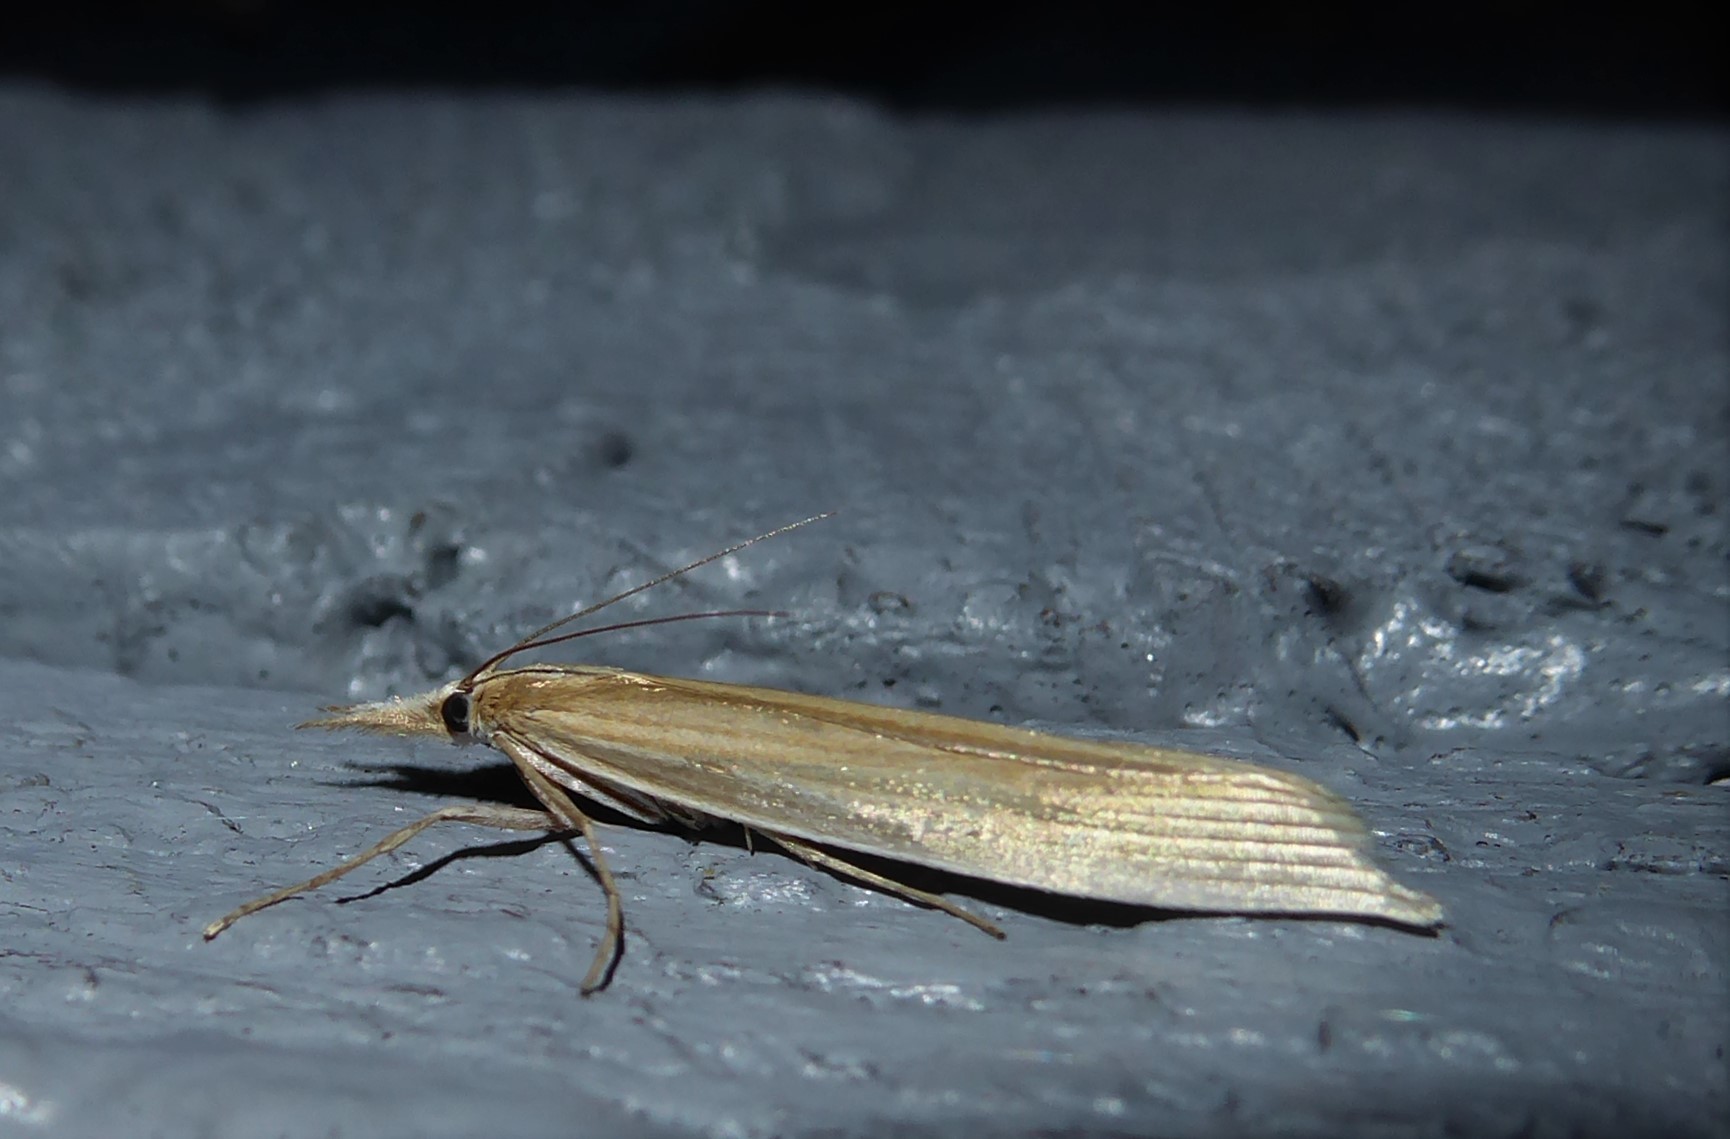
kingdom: Animalia
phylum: Arthropoda
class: Insecta
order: Lepidoptera
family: Crambidae
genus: Orocrambus
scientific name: Orocrambus angustipennis
